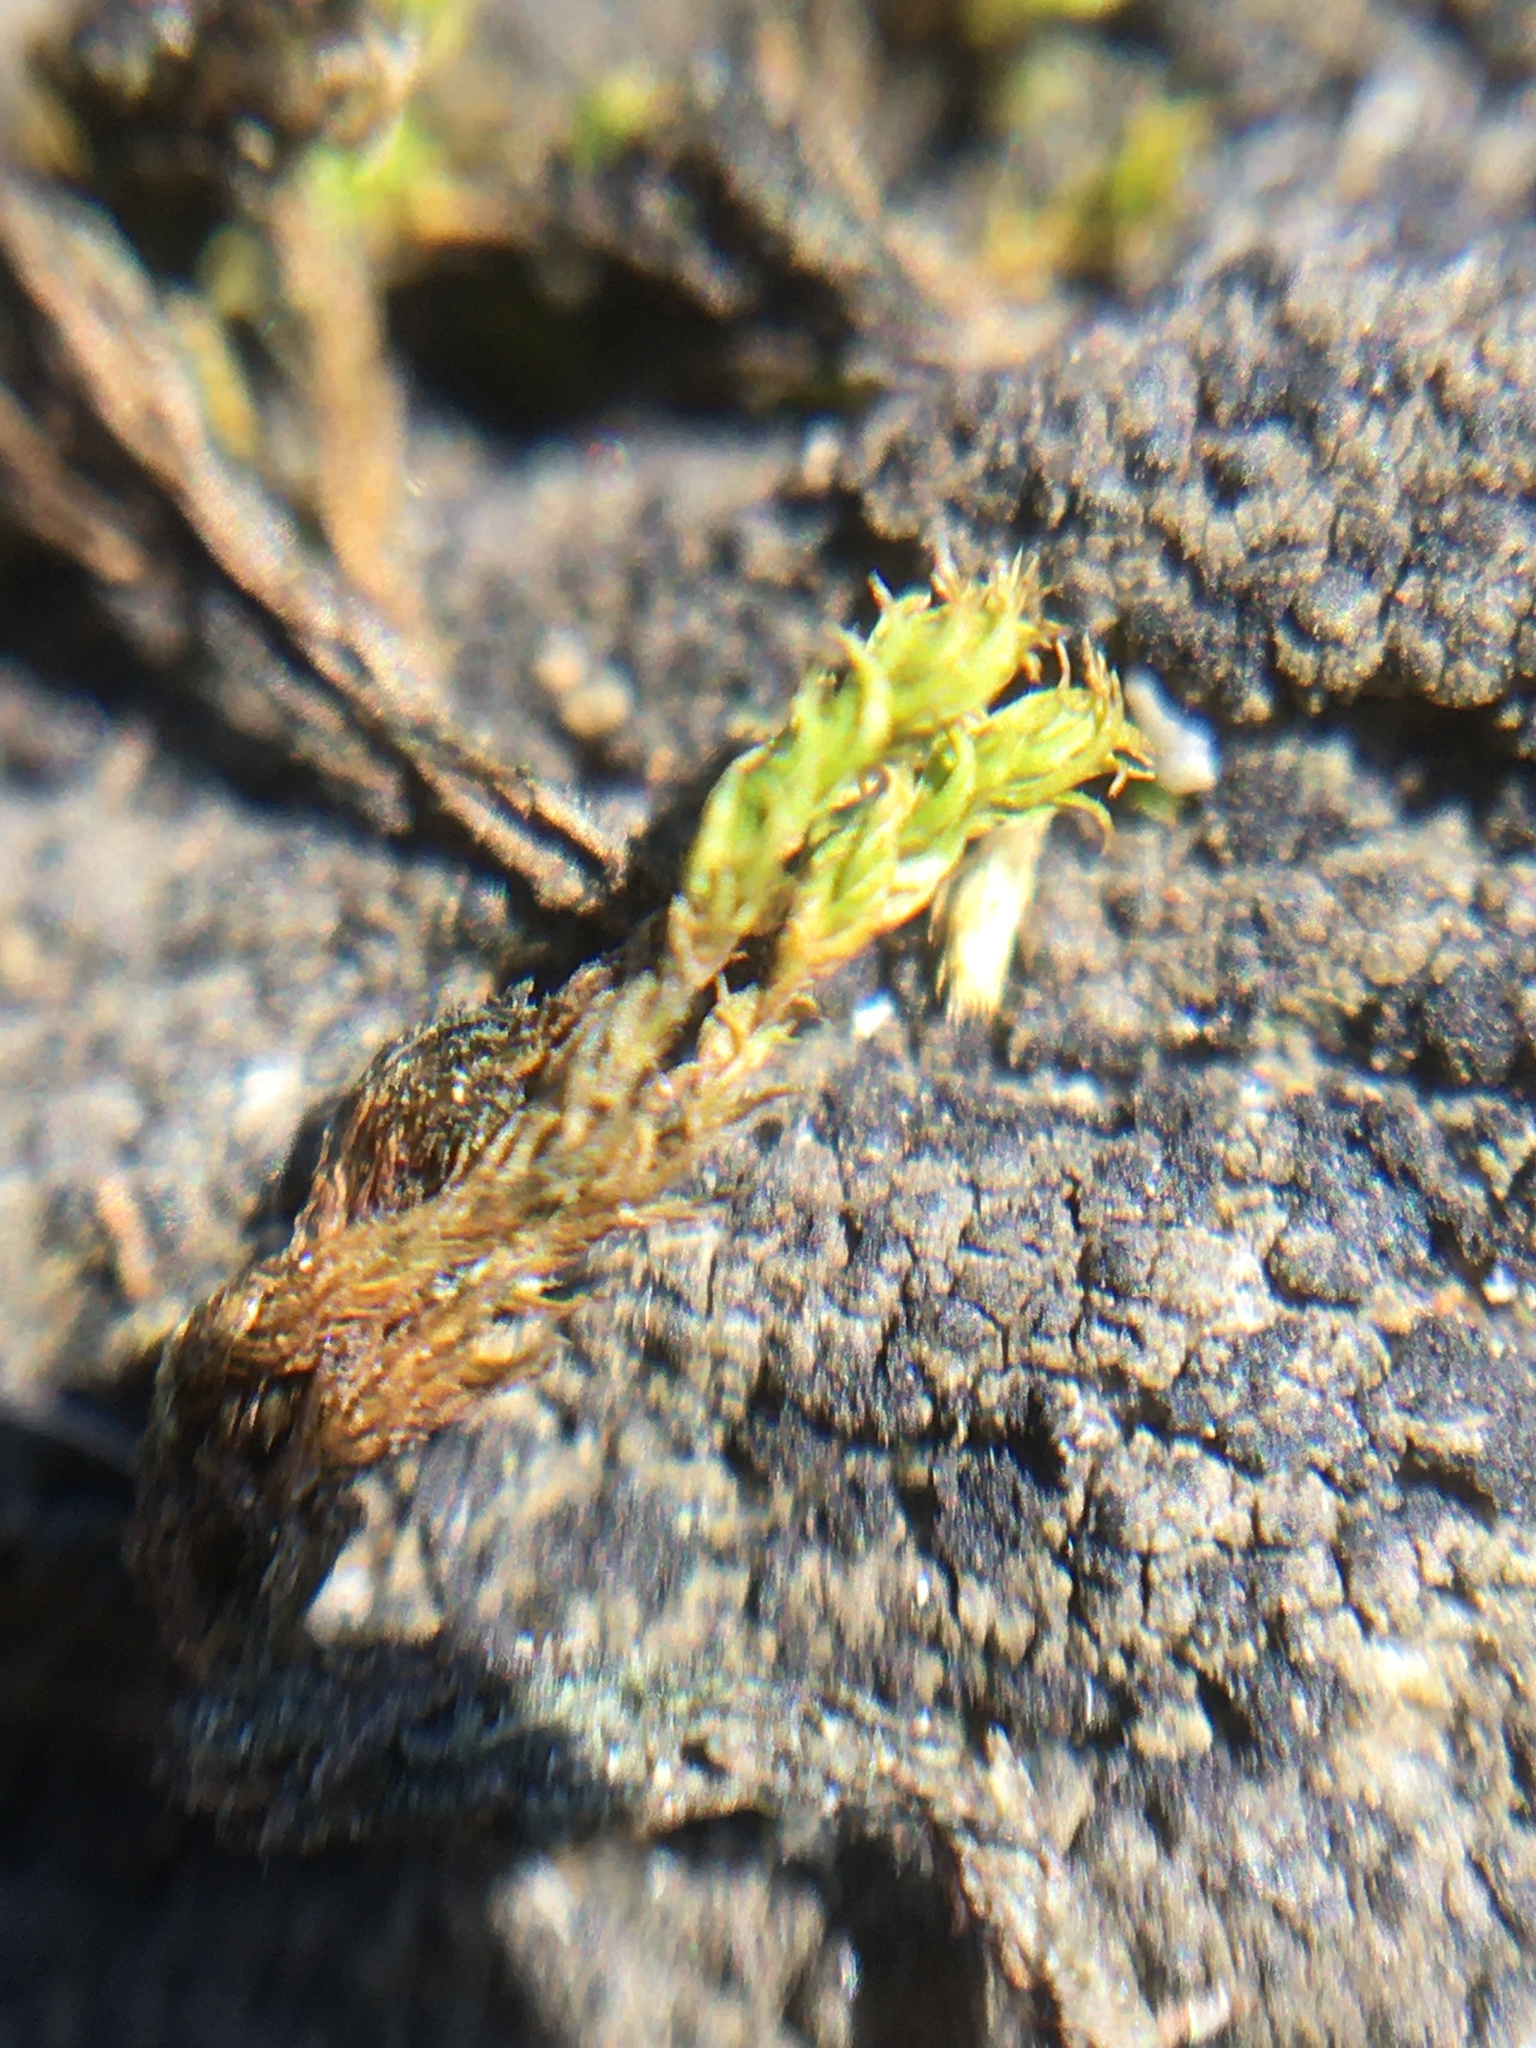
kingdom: Plantae
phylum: Bryophyta
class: Bryopsida
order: Dicranales
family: Ditrichaceae
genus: Ceratodon
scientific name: Ceratodon purpureus
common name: Redshank
